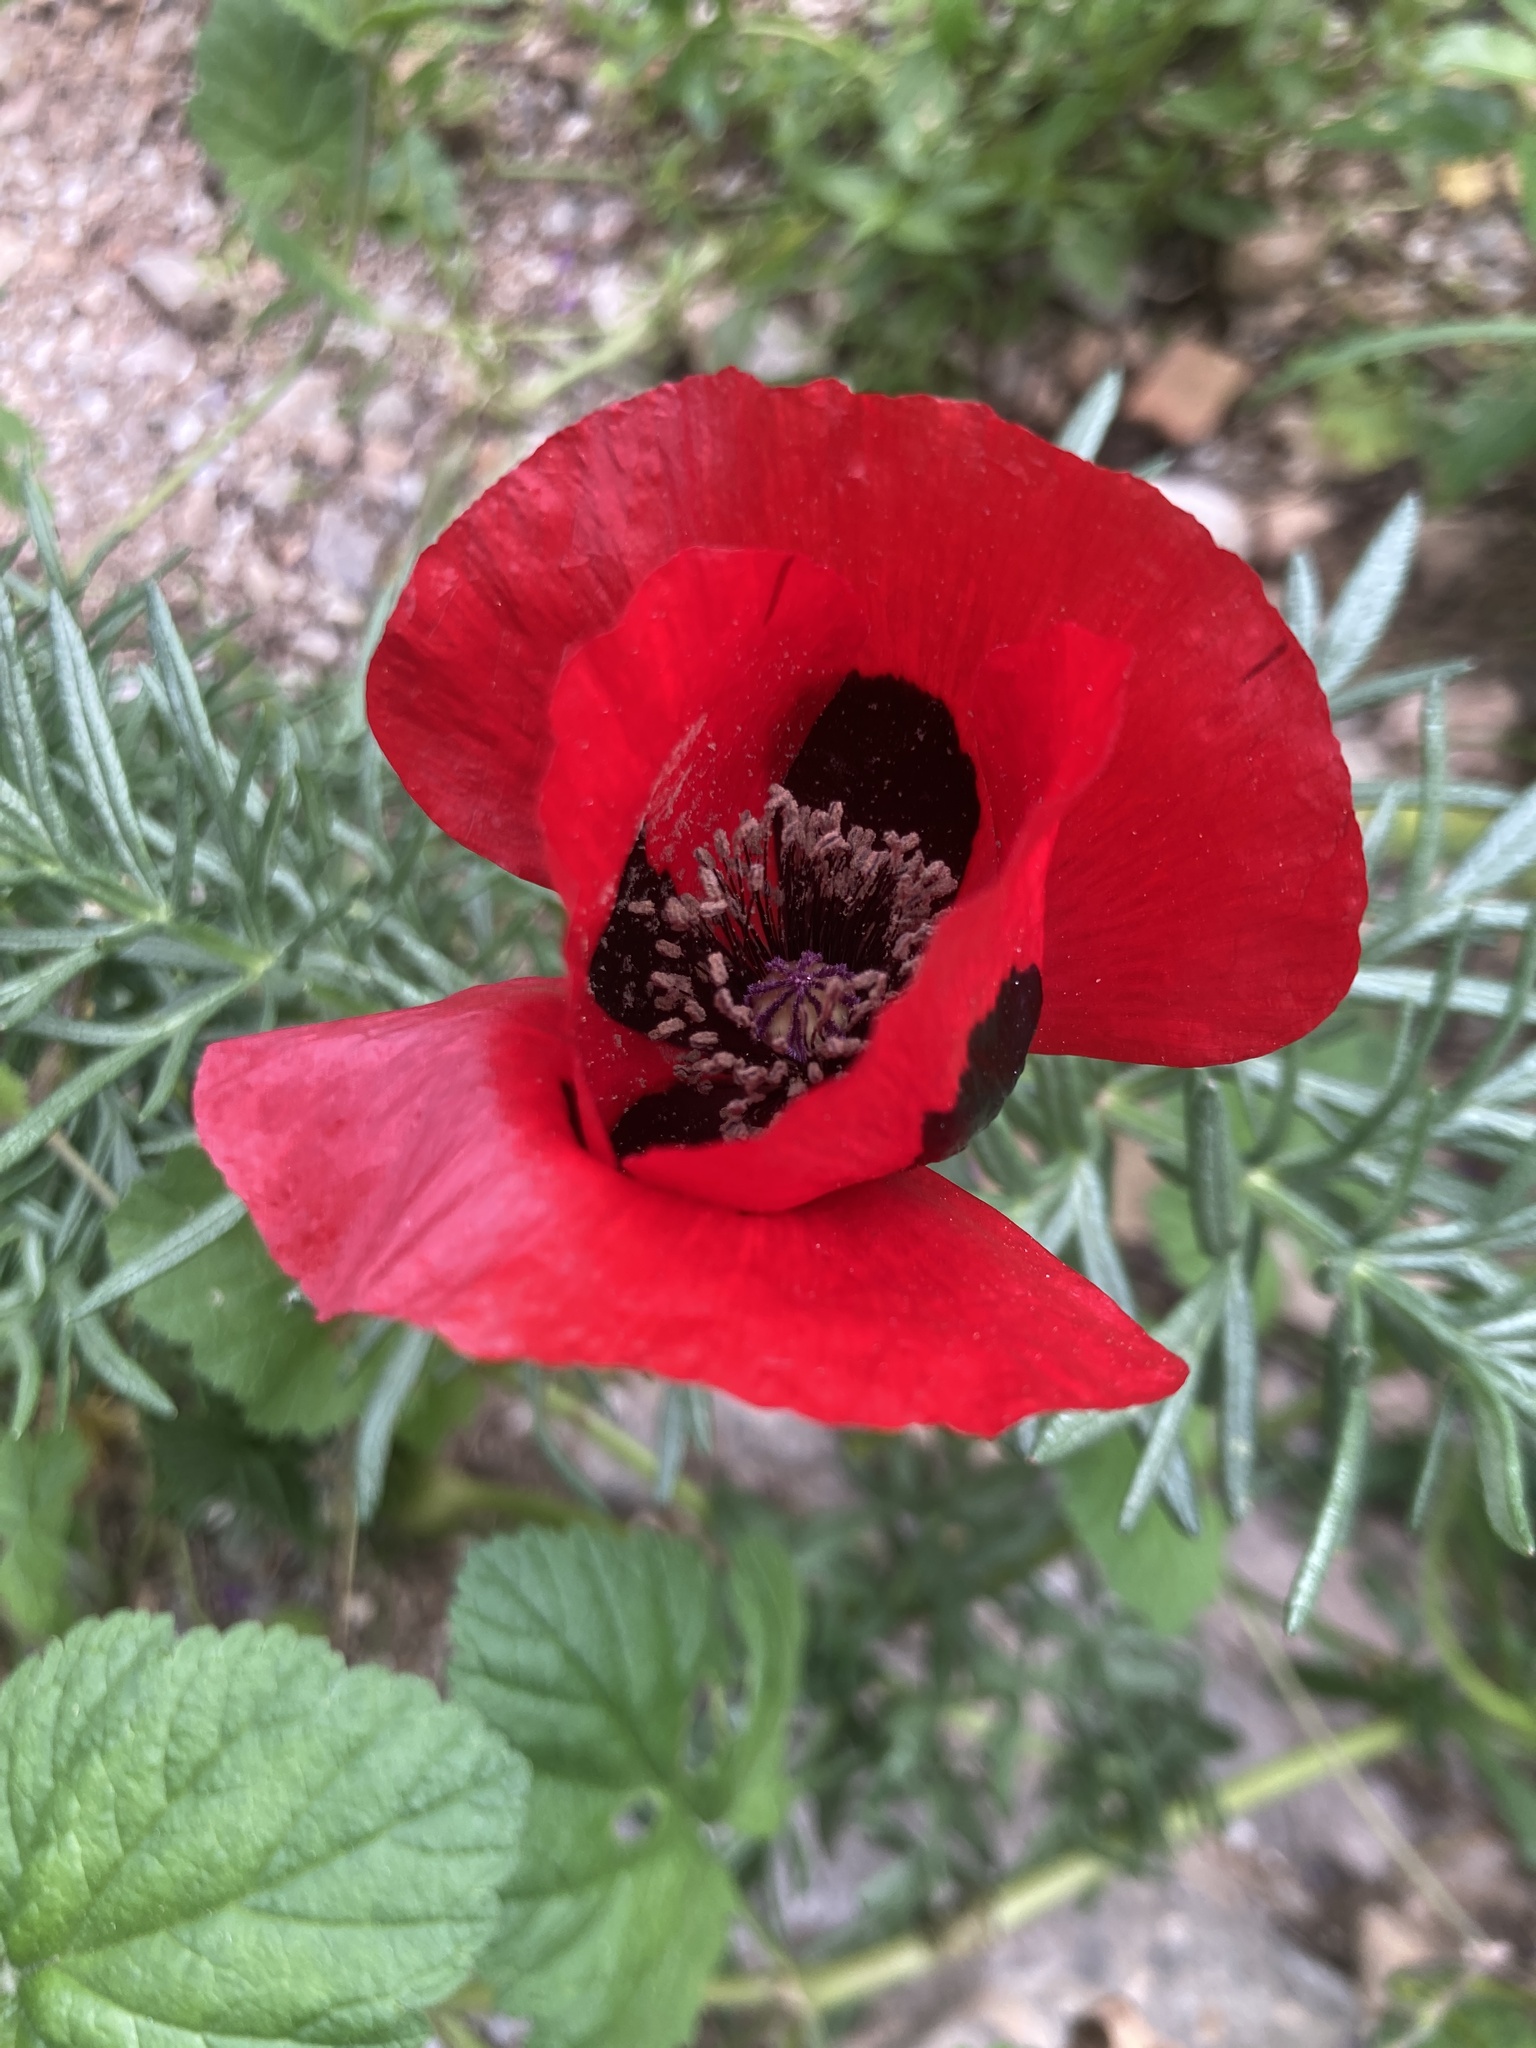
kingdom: Plantae
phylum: Tracheophyta
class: Magnoliopsida
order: Ranunculales
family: Papaveraceae
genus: Papaver
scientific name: Papaver rhoeas
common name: Corn poppy
